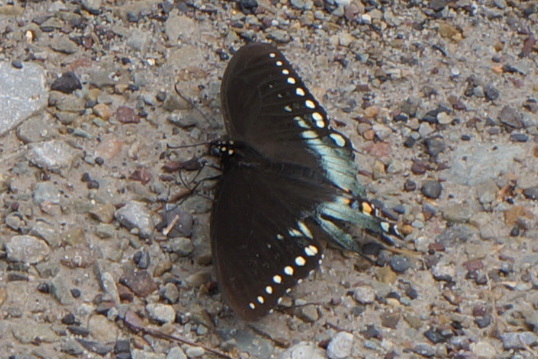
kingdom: Animalia
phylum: Arthropoda
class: Insecta
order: Lepidoptera
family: Papilionidae
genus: Papilio
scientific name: Papilio troilus
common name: Spicebush swallowtail
